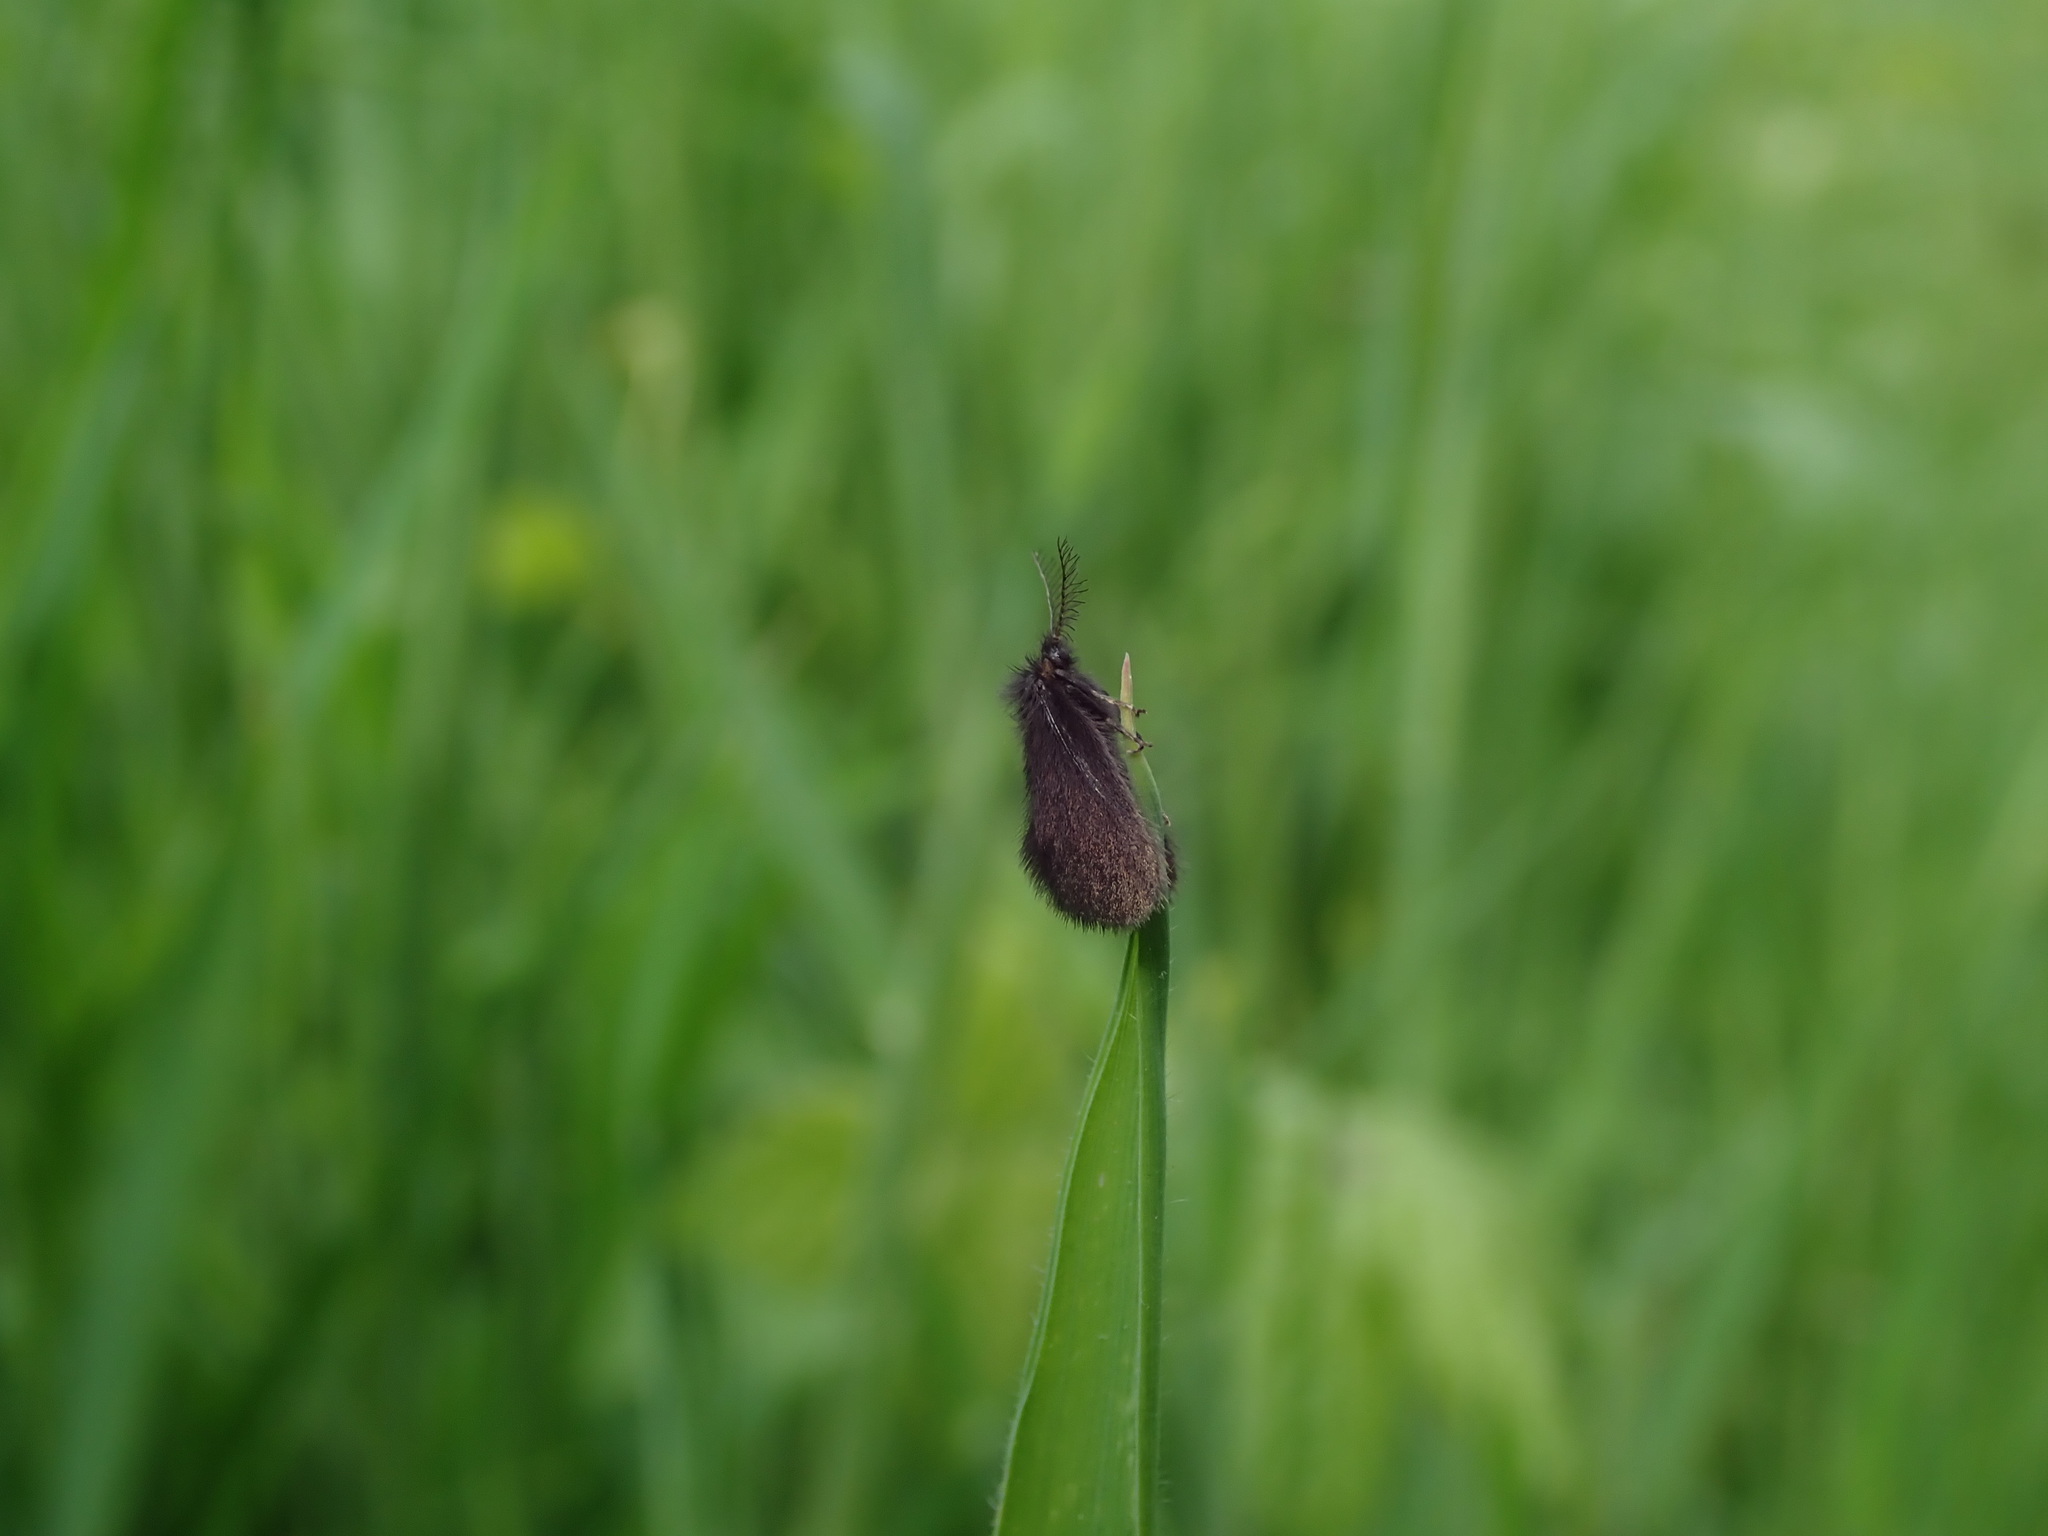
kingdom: Animalia
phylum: Arthropoda
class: Insecta
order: Lepidoptera
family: Psychidae
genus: Epichnopterix
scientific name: Epichnopterix plumella
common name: Round-winged sweep
